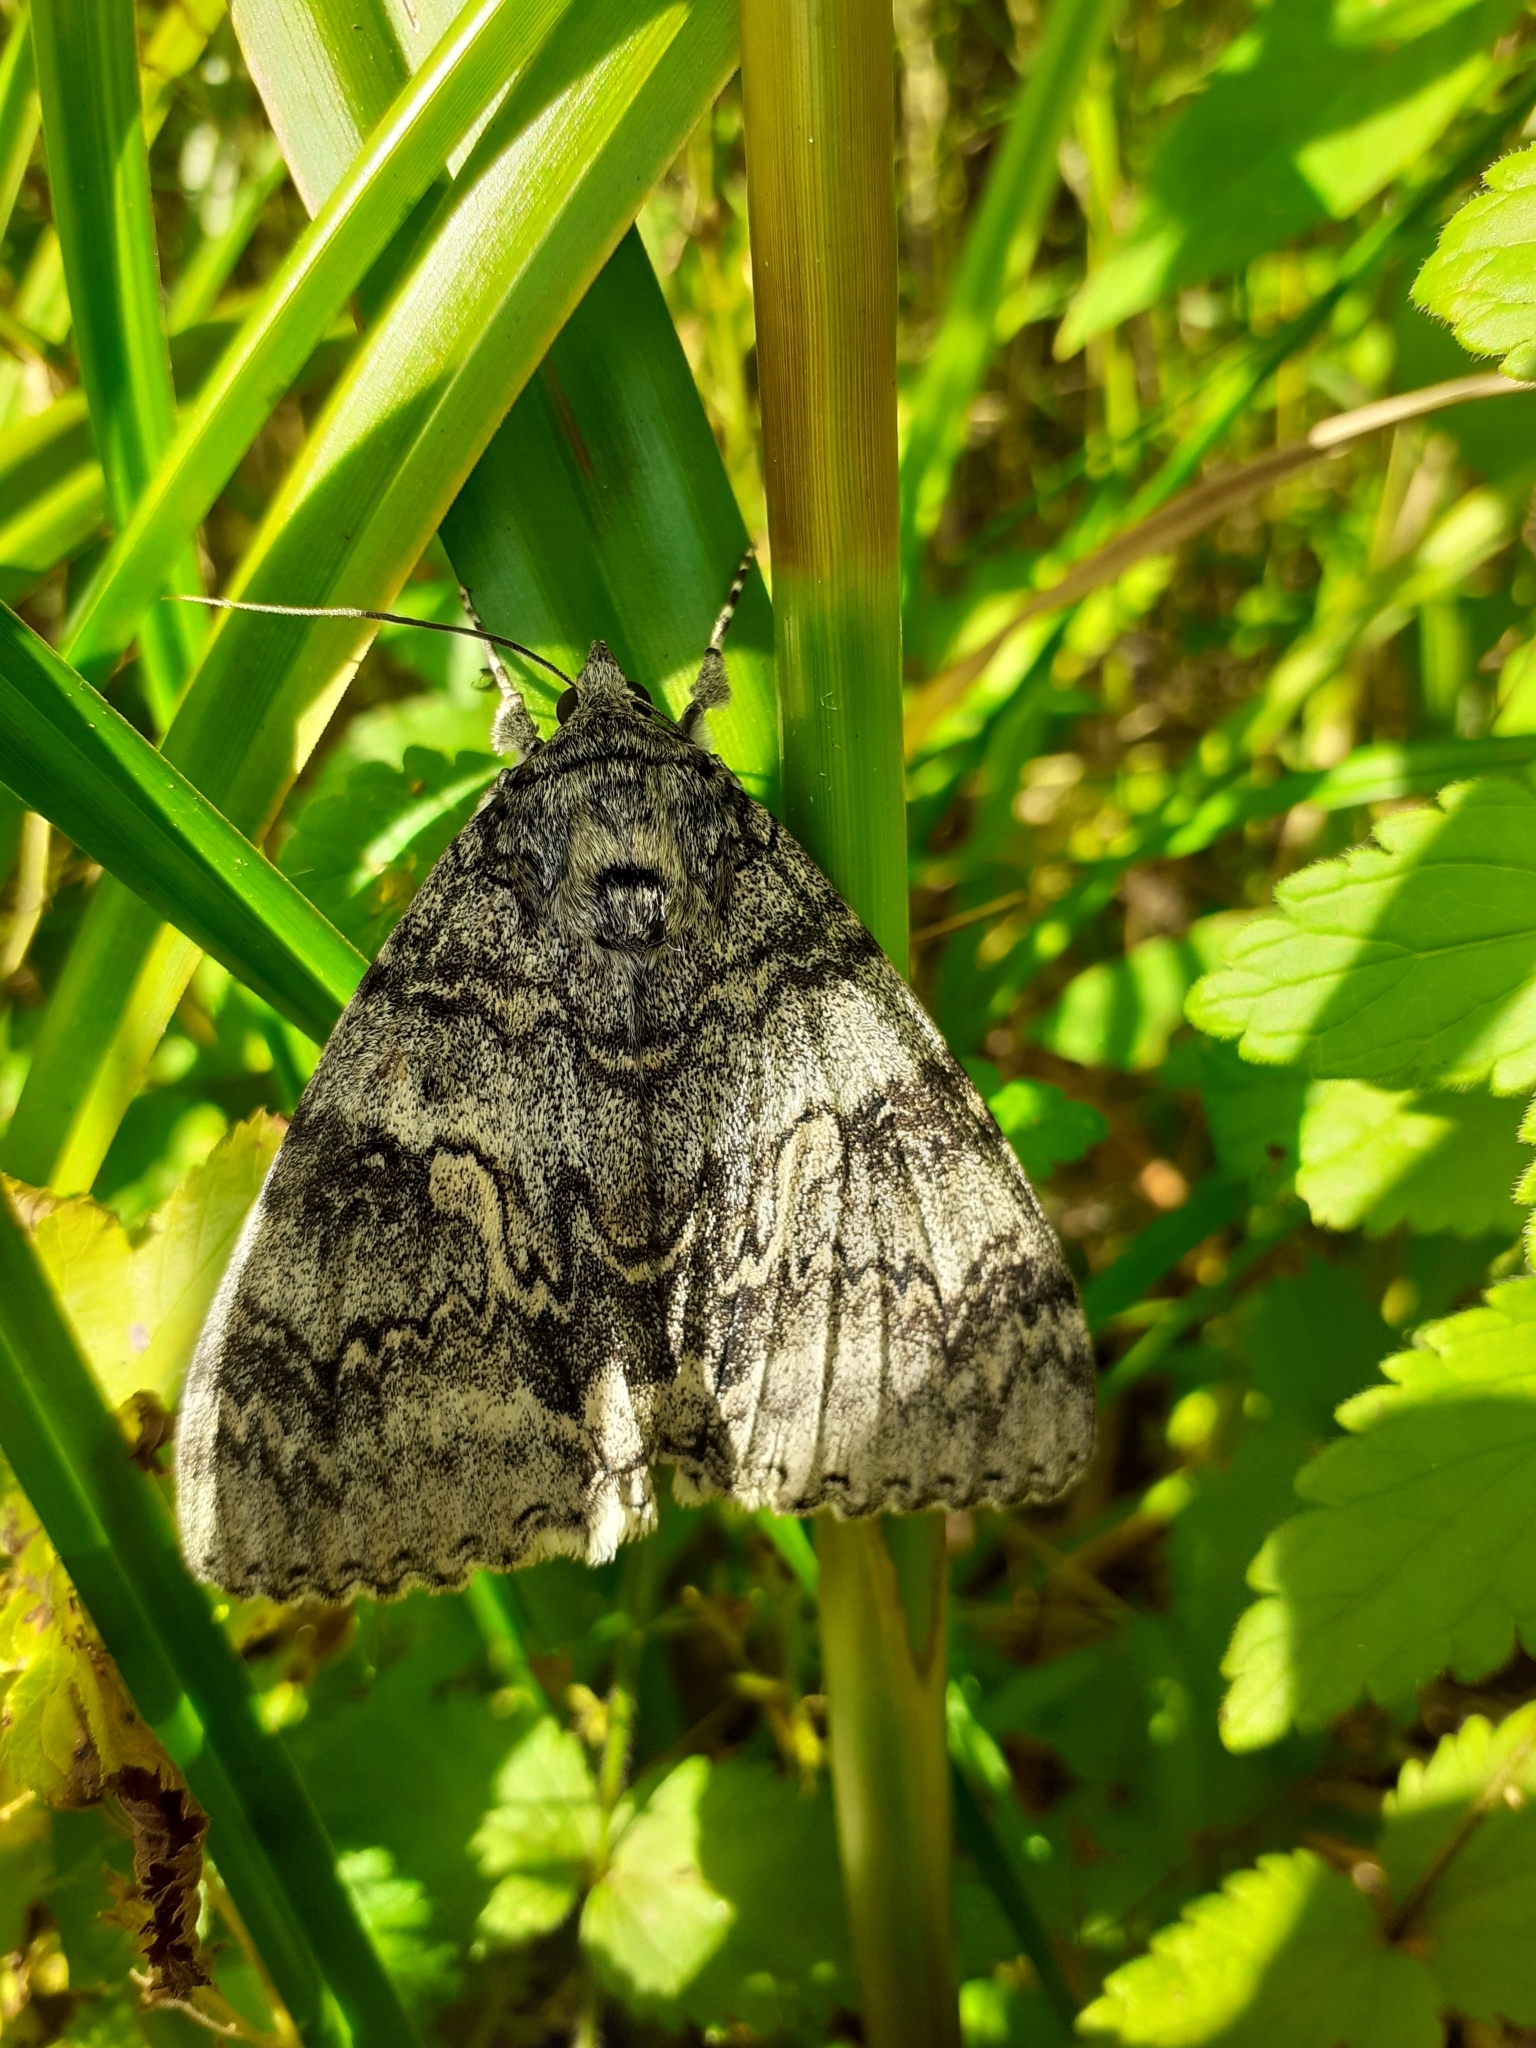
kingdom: Animalia
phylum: Arthropoda
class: Insecta
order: Lepidoptera
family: Erebidae
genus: Catocala
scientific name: Catocala fraxini
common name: Clifden nonpareil
